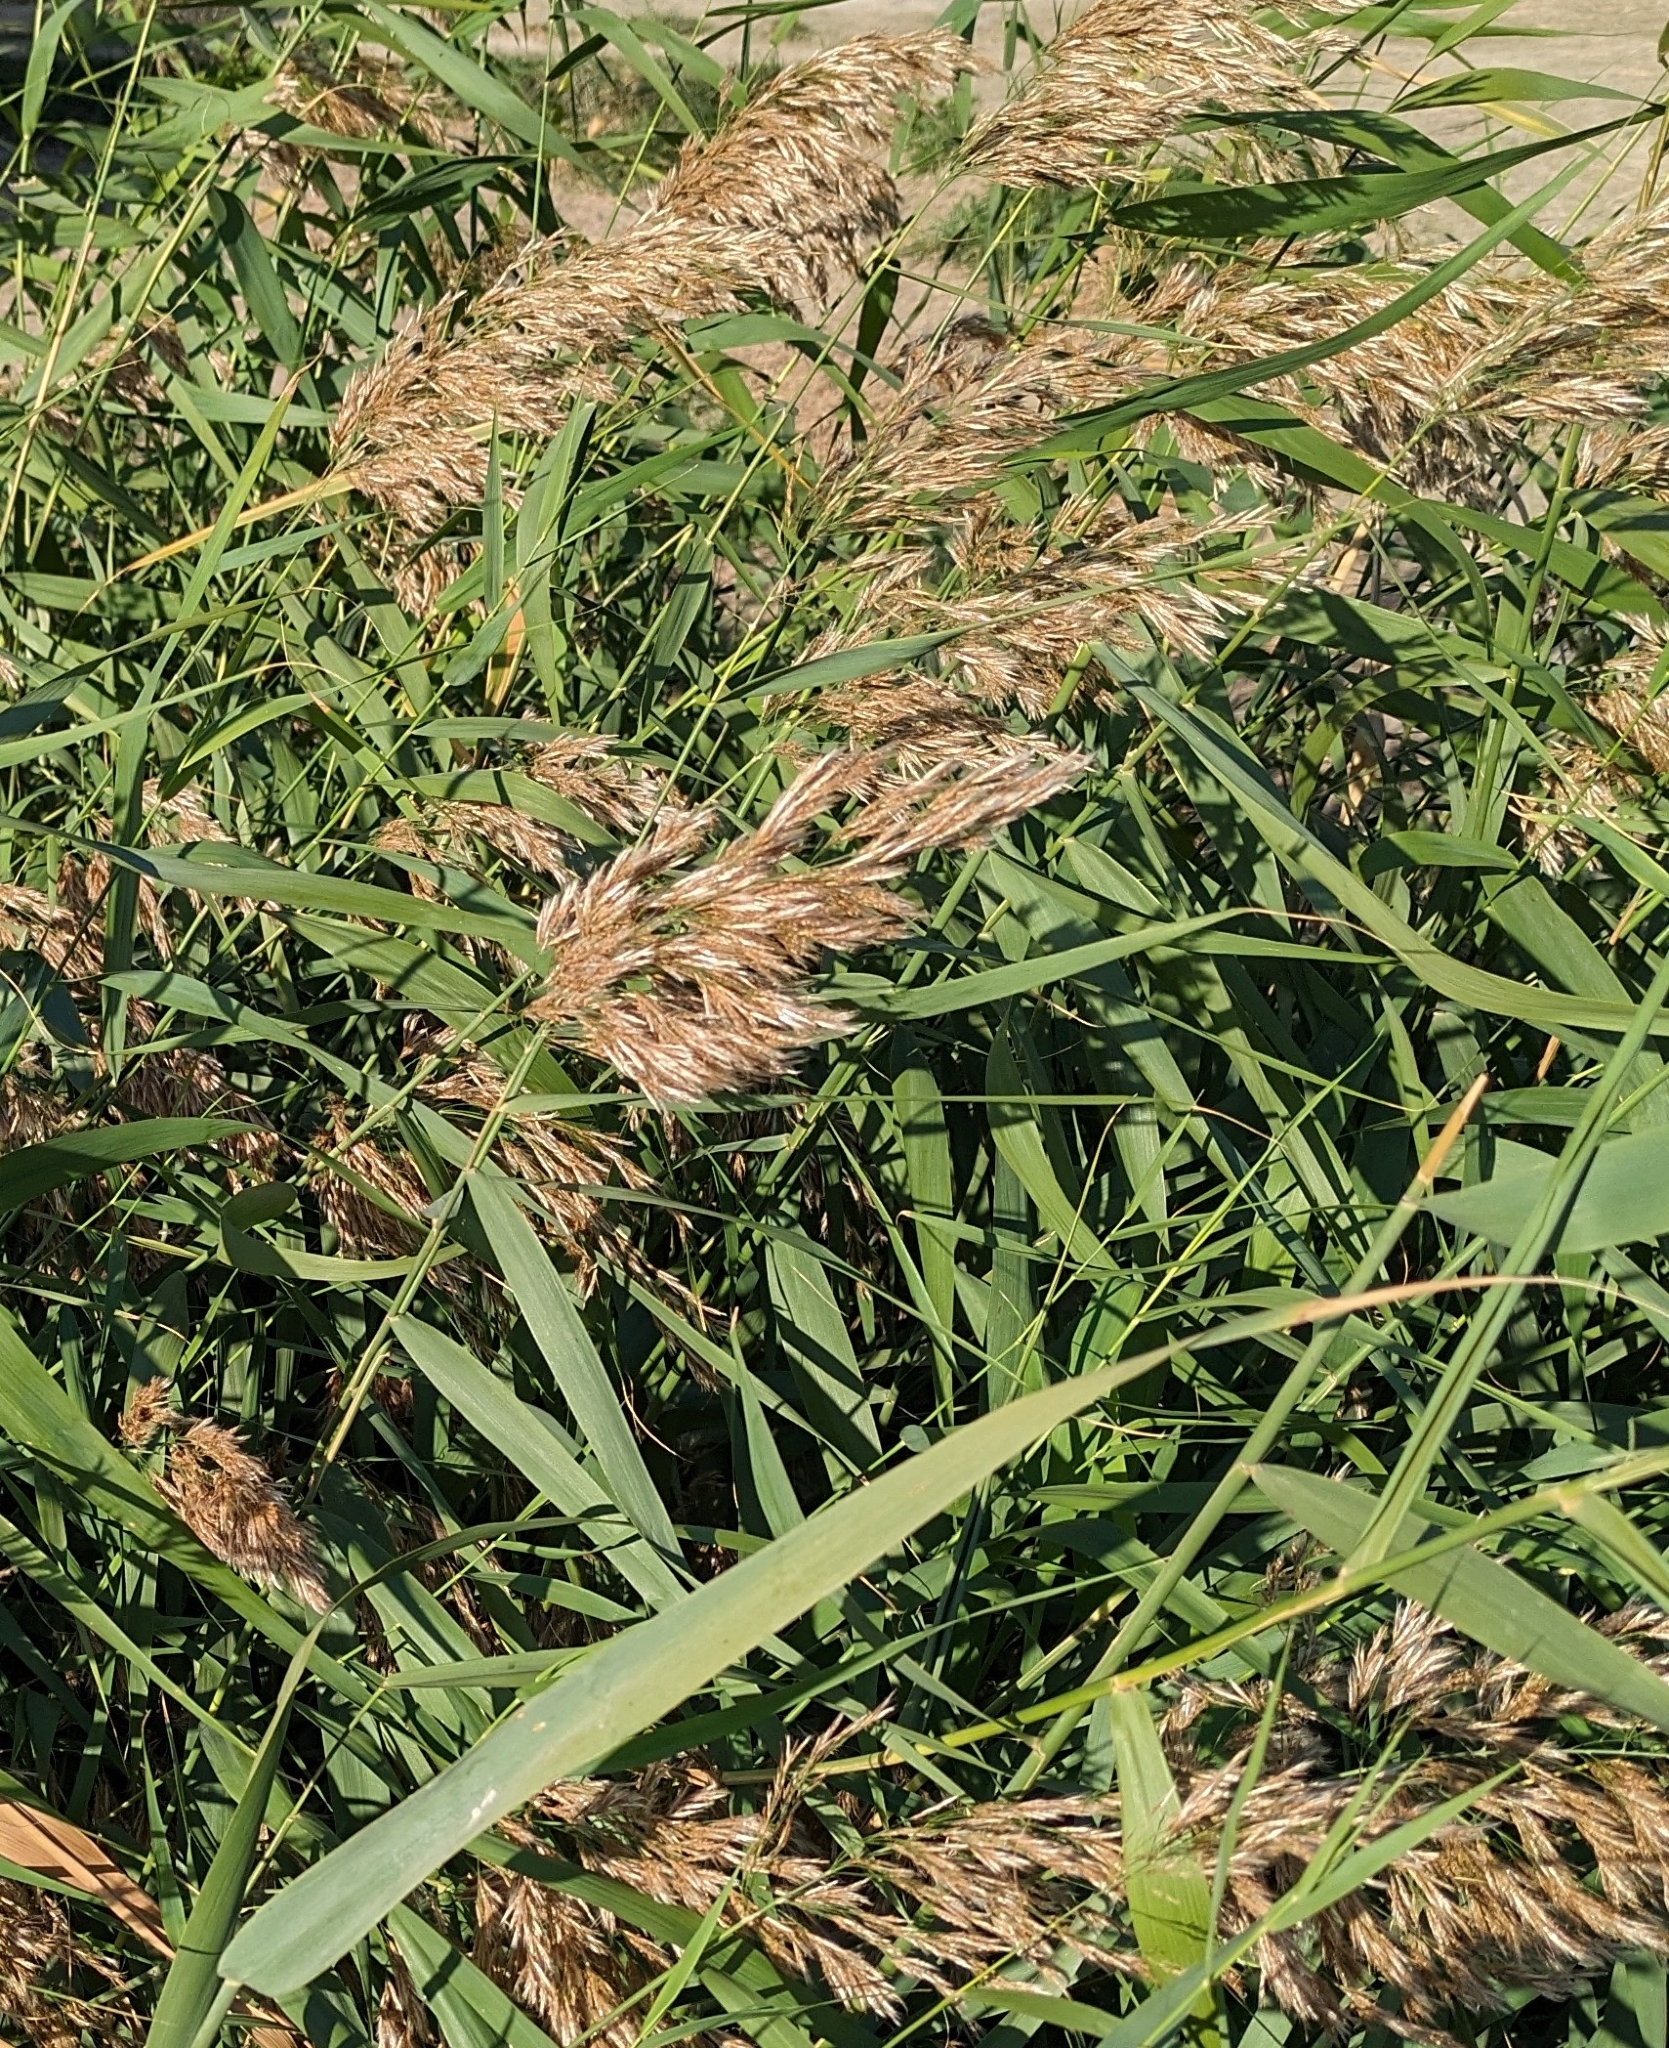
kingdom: Plantae
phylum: Tracheophyta
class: Liliopsida
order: Poales
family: Poaceae
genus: Phragmites
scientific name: Phragmites australis
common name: Common reed
